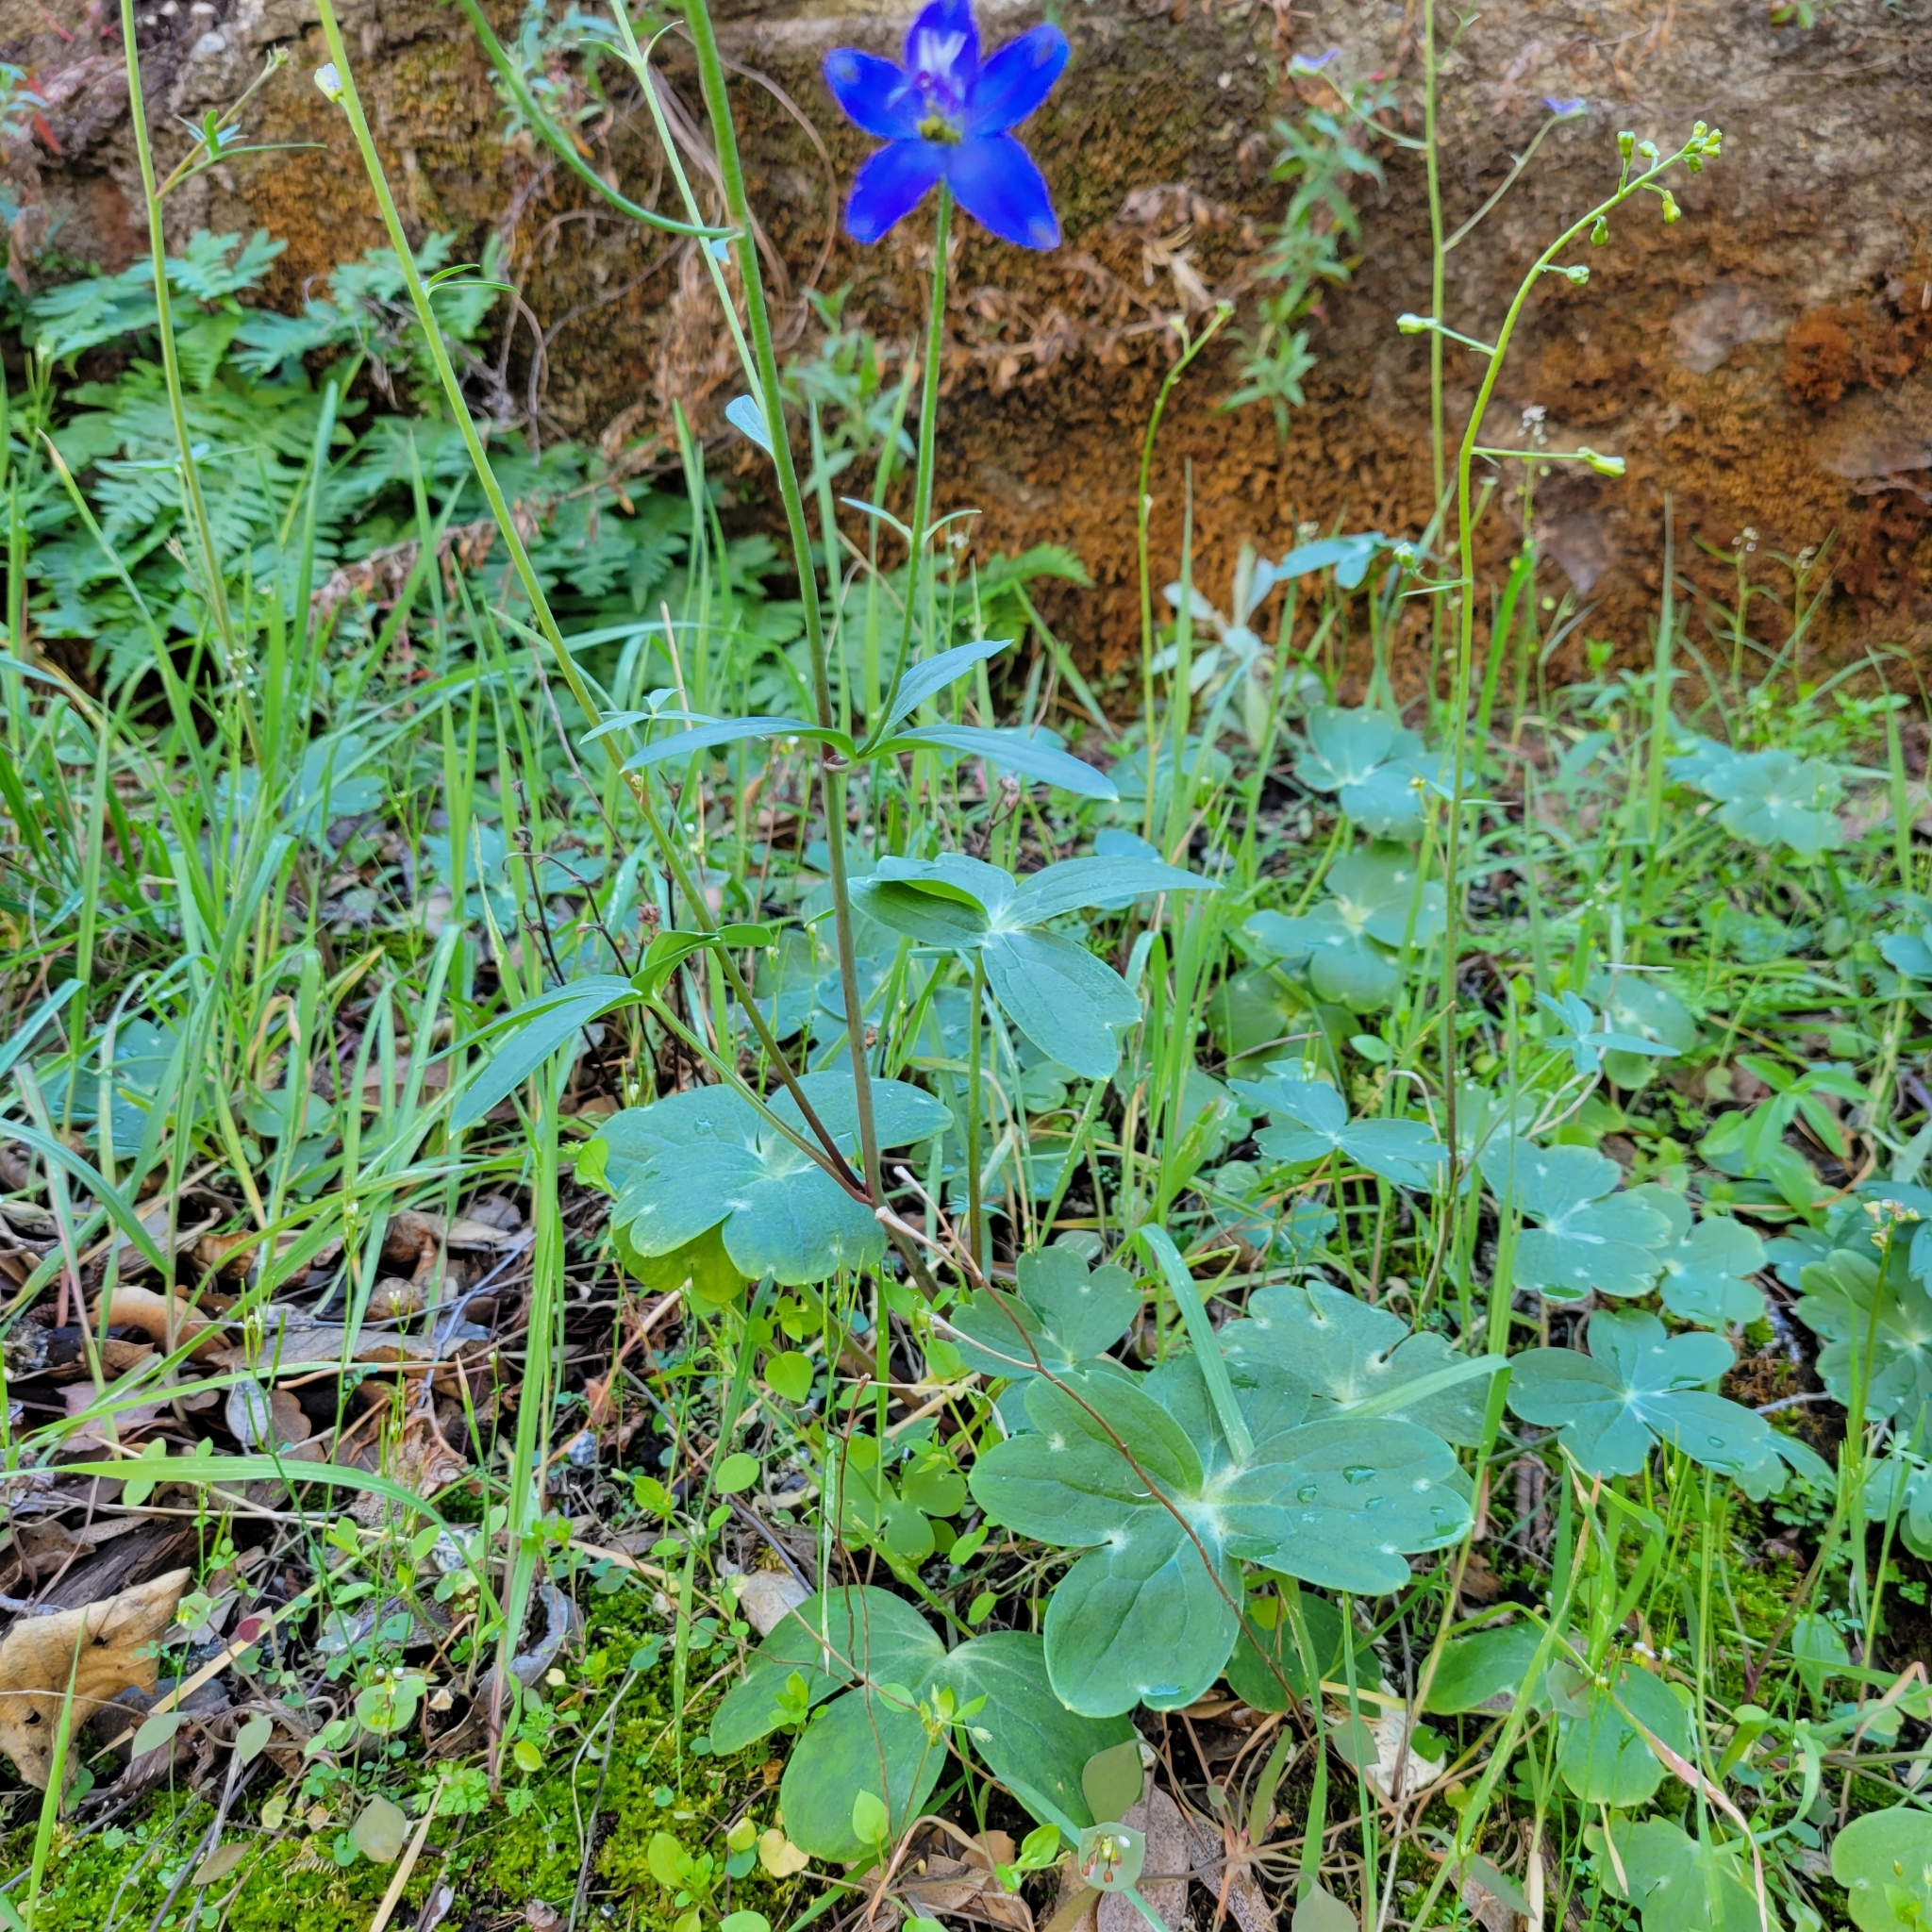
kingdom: Plantae
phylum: Tracheophyta
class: Magnoliopsida
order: Ranunculales
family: Ranunculaceae
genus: Delphinium
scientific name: Delphinium patens
